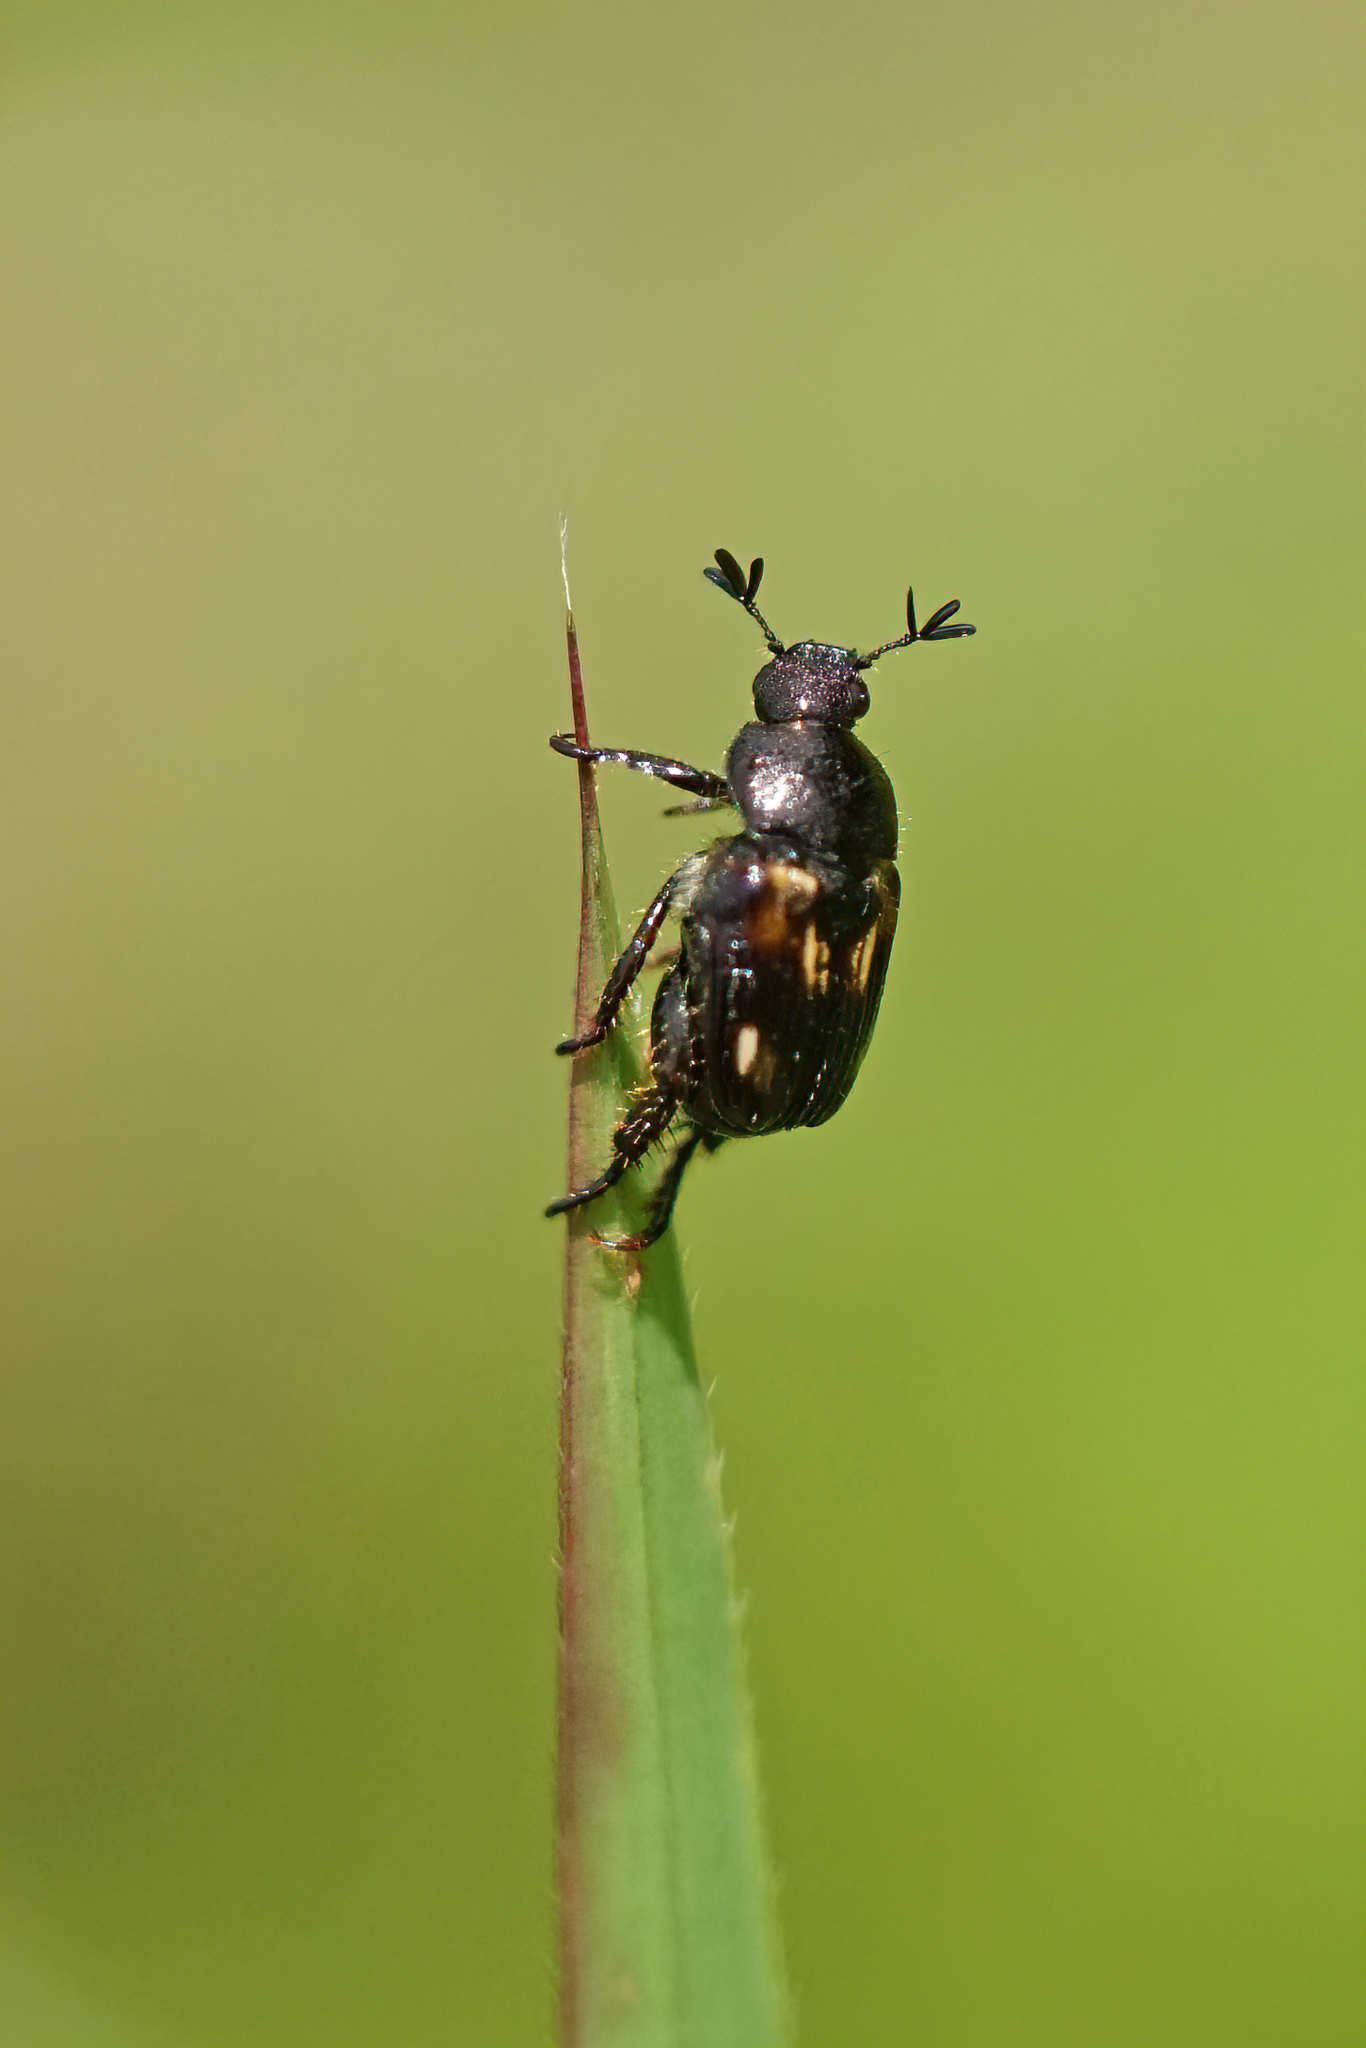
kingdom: Animalia
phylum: Arthropoda
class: Insecta
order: Coleoptera
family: Scarabaeidae
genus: Strigoderma
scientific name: Strigoderma pygmaea
